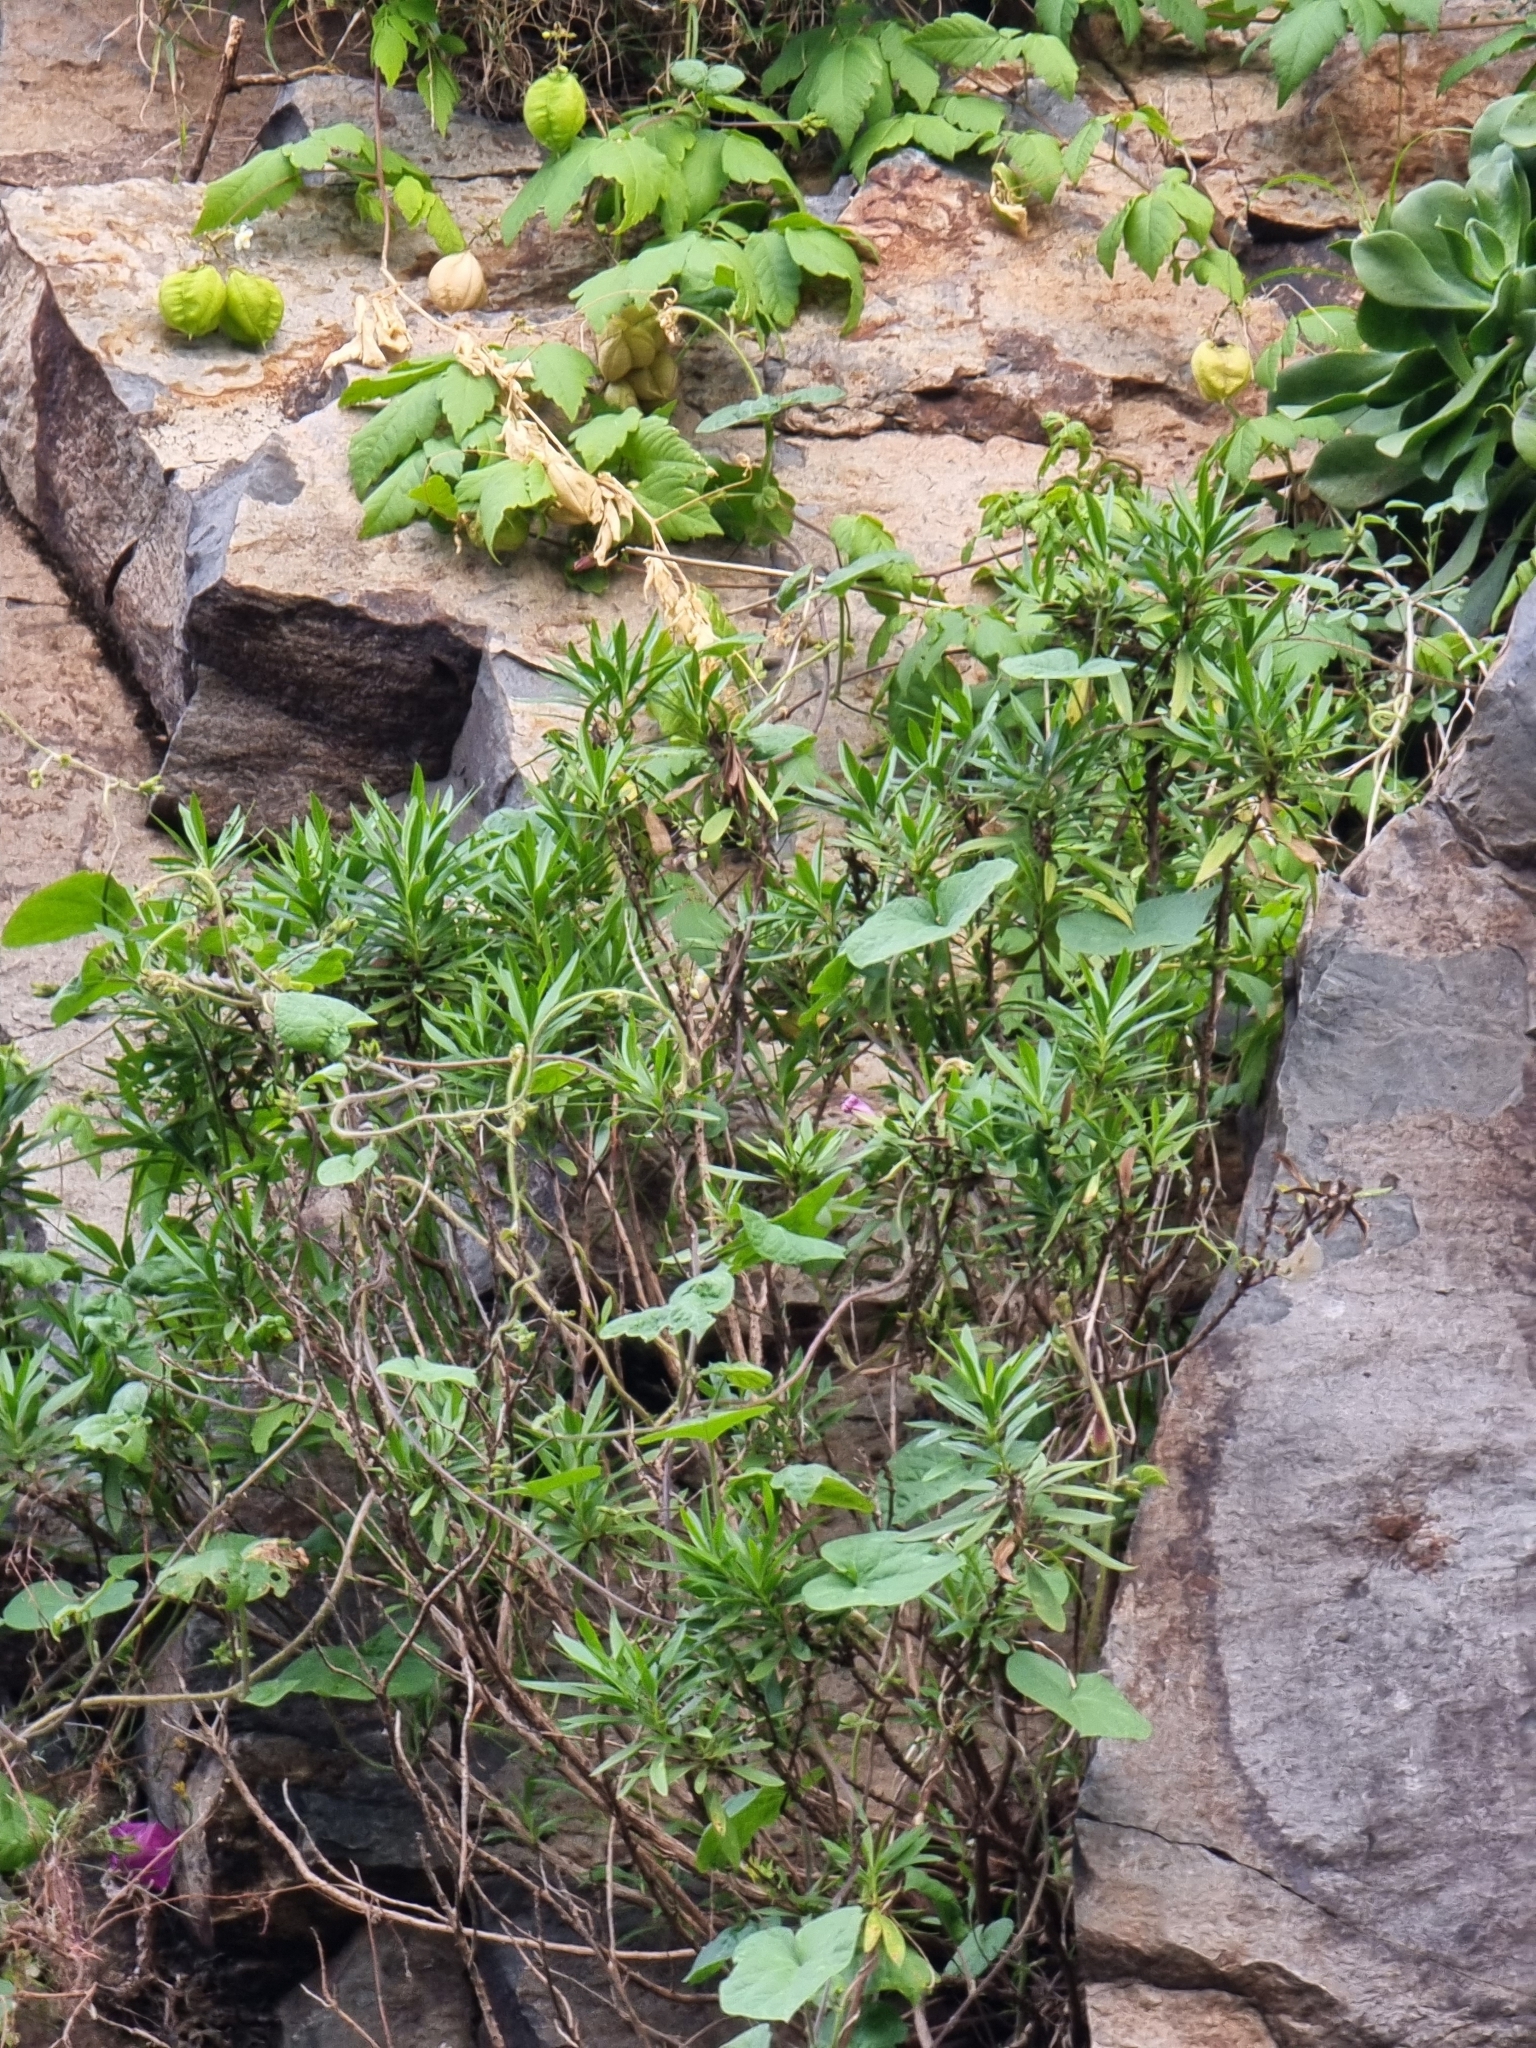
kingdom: Plantae
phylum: Tracheophyta
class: Magnoliopsida
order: Lamiales
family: Plantaginaceae
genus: Globularia
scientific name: Globularia salicina
